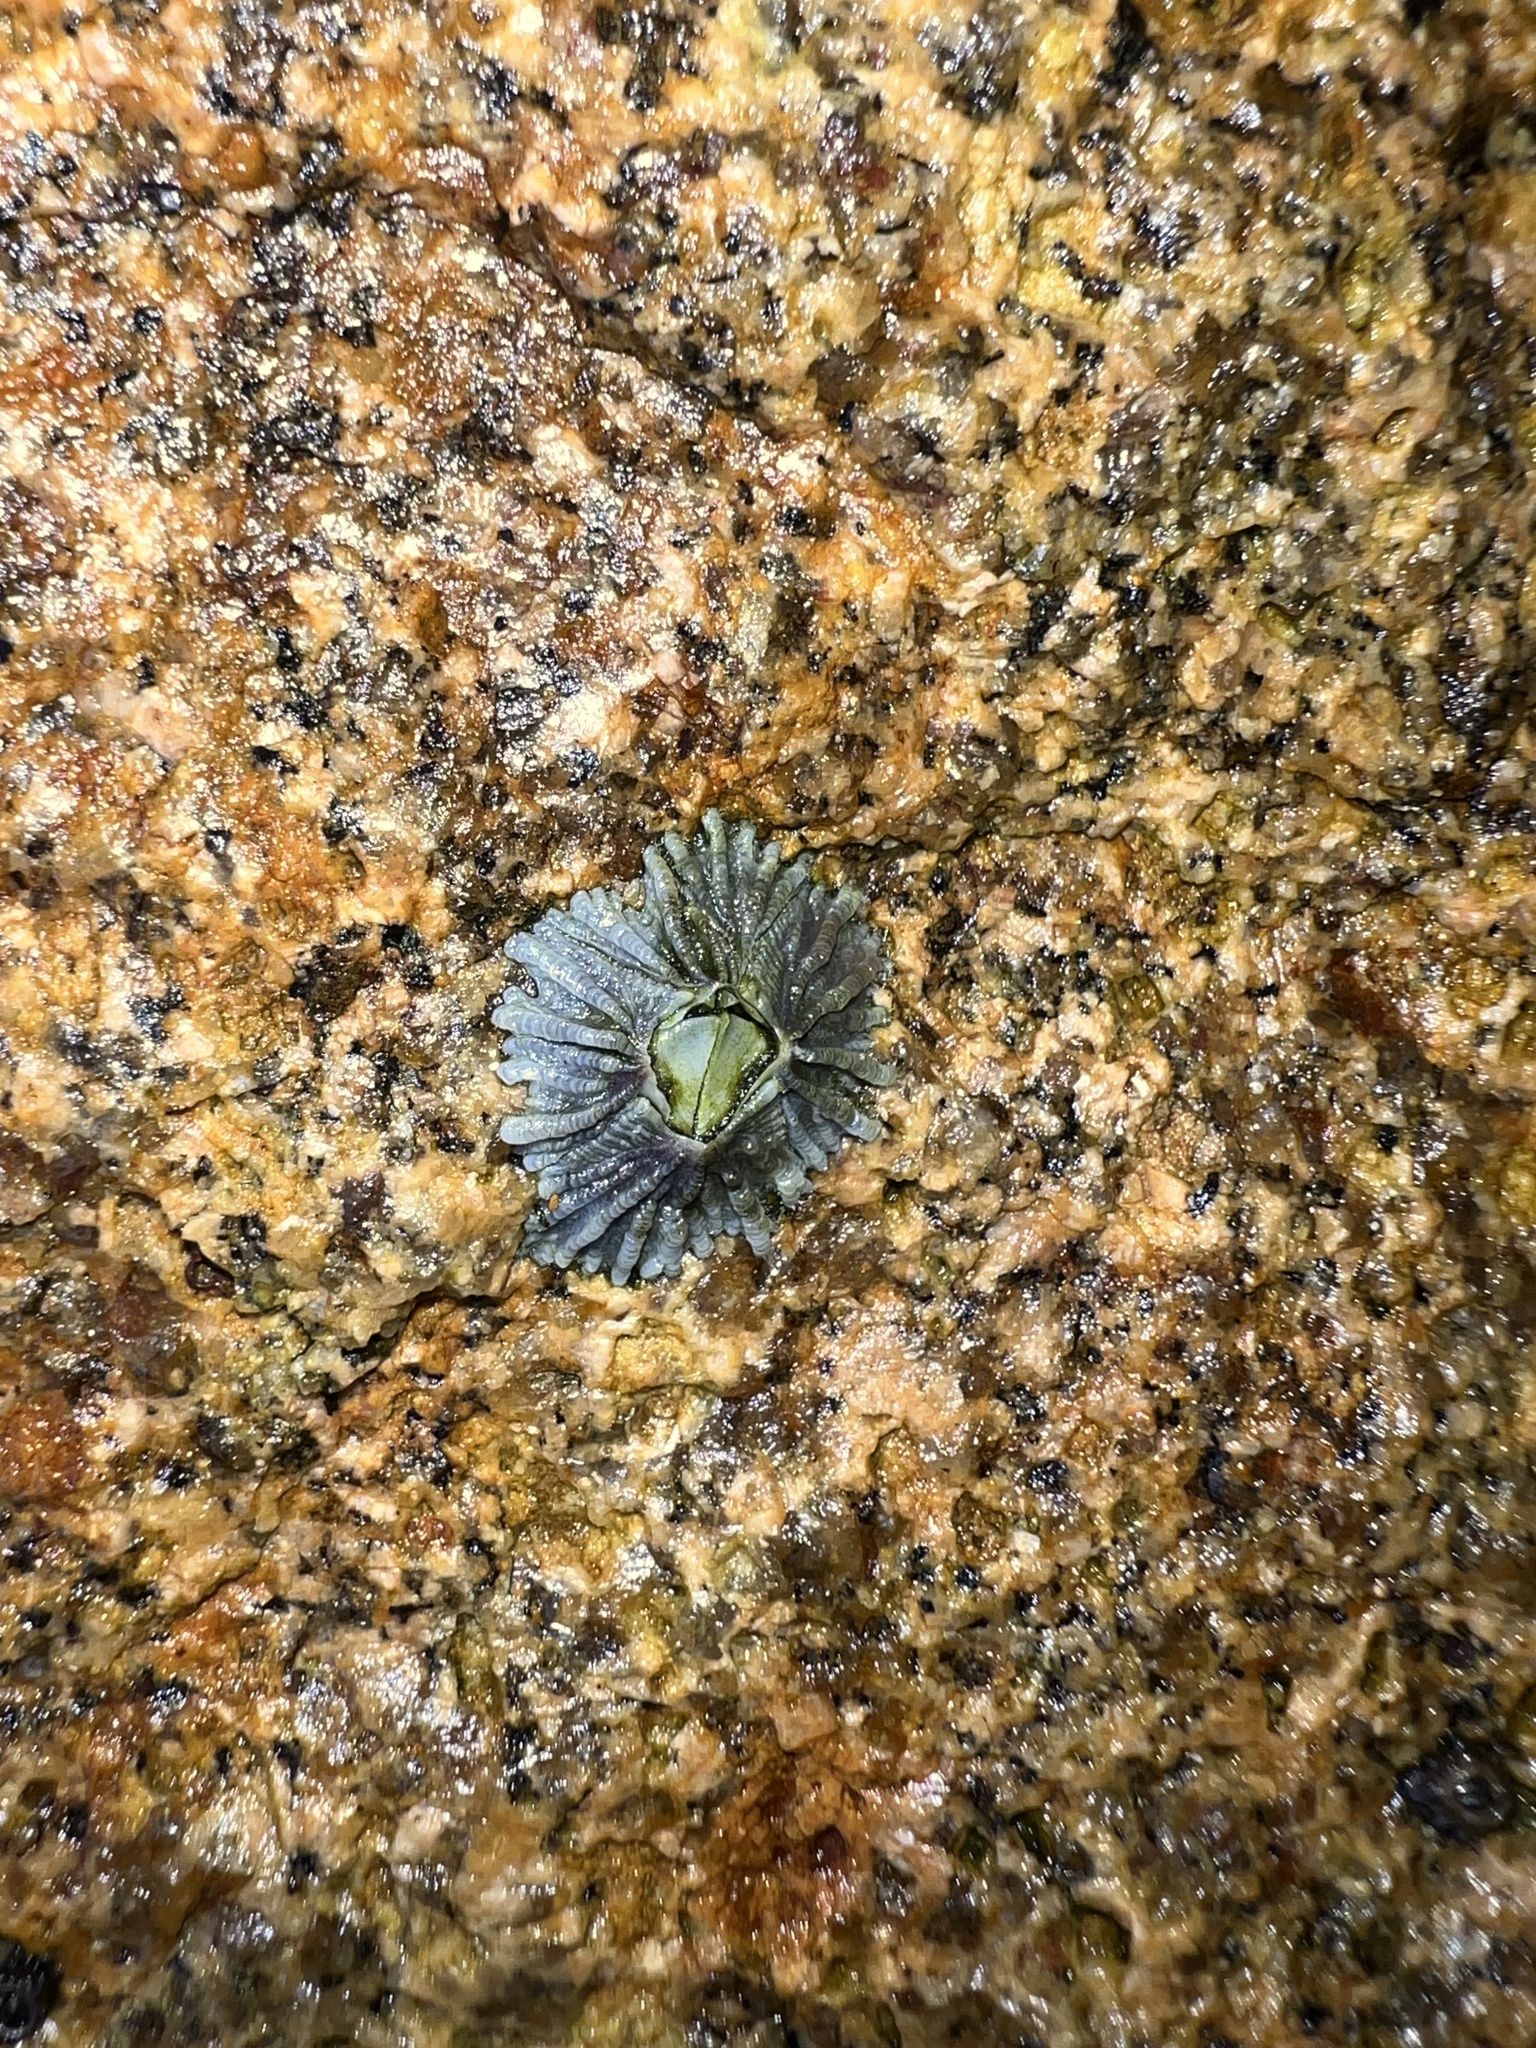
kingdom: Animalia
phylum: Arthropoda
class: Maxillopoda
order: Sessilia
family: Tetraclitidae
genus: Tetraclitella
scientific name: Tetraclitella purpurascens
